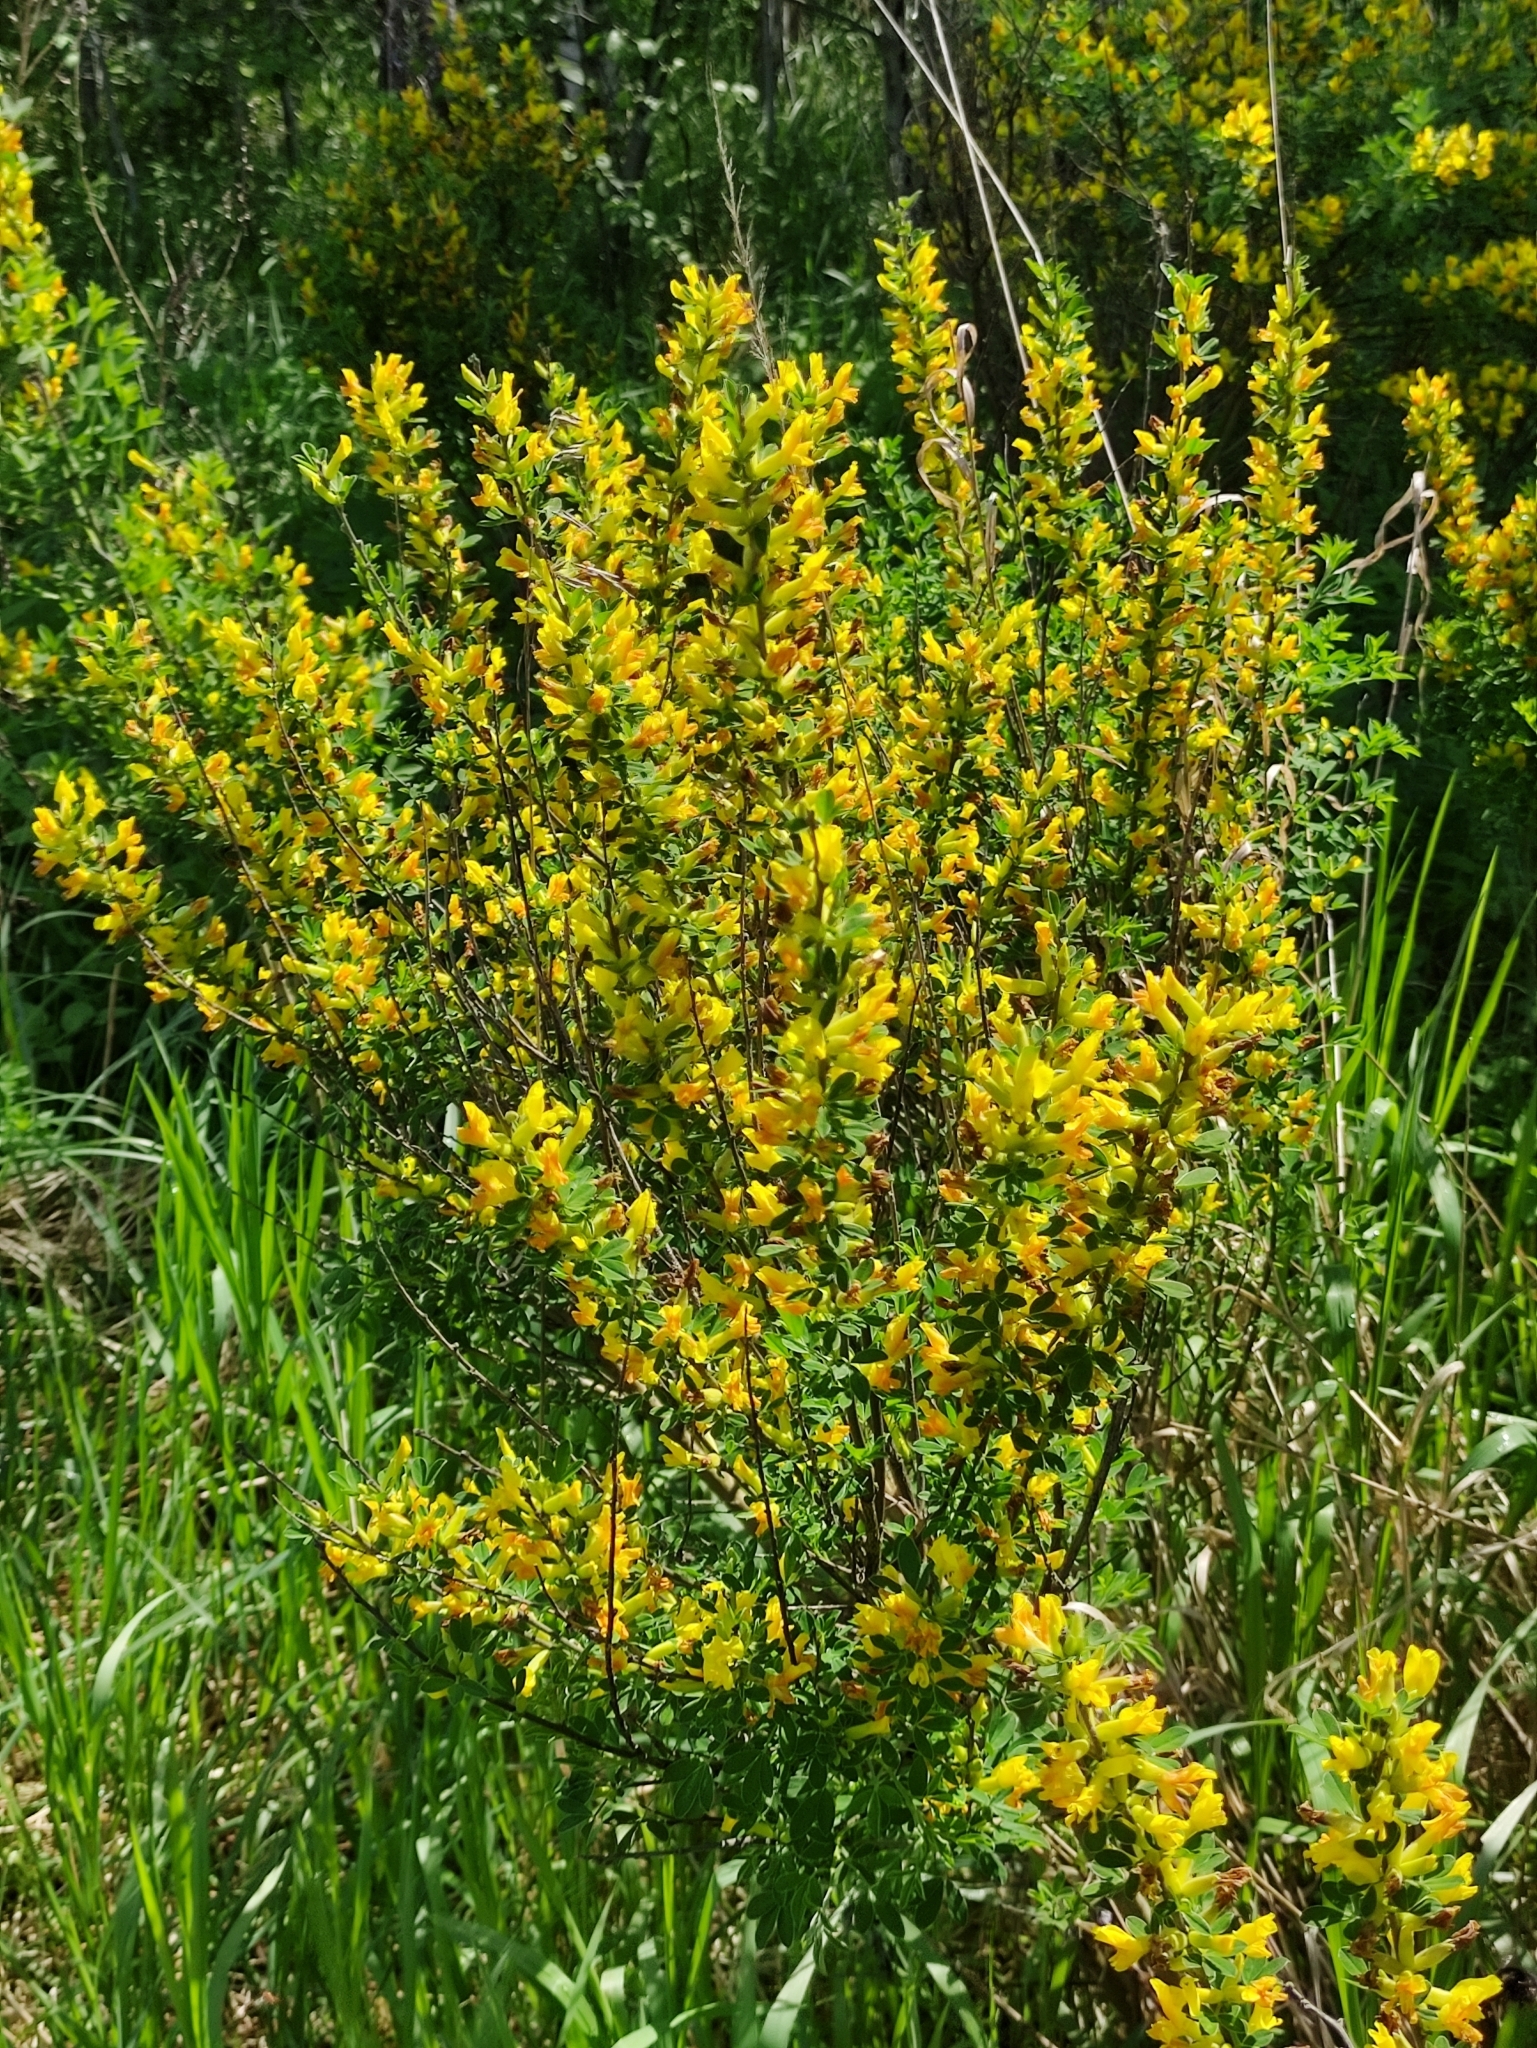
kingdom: Plantae
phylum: Tracheophyta
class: Magnoliopsida
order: Fabales
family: Fabaceae
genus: Chamaecytisus
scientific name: Chamaecytisus ruthenicus
